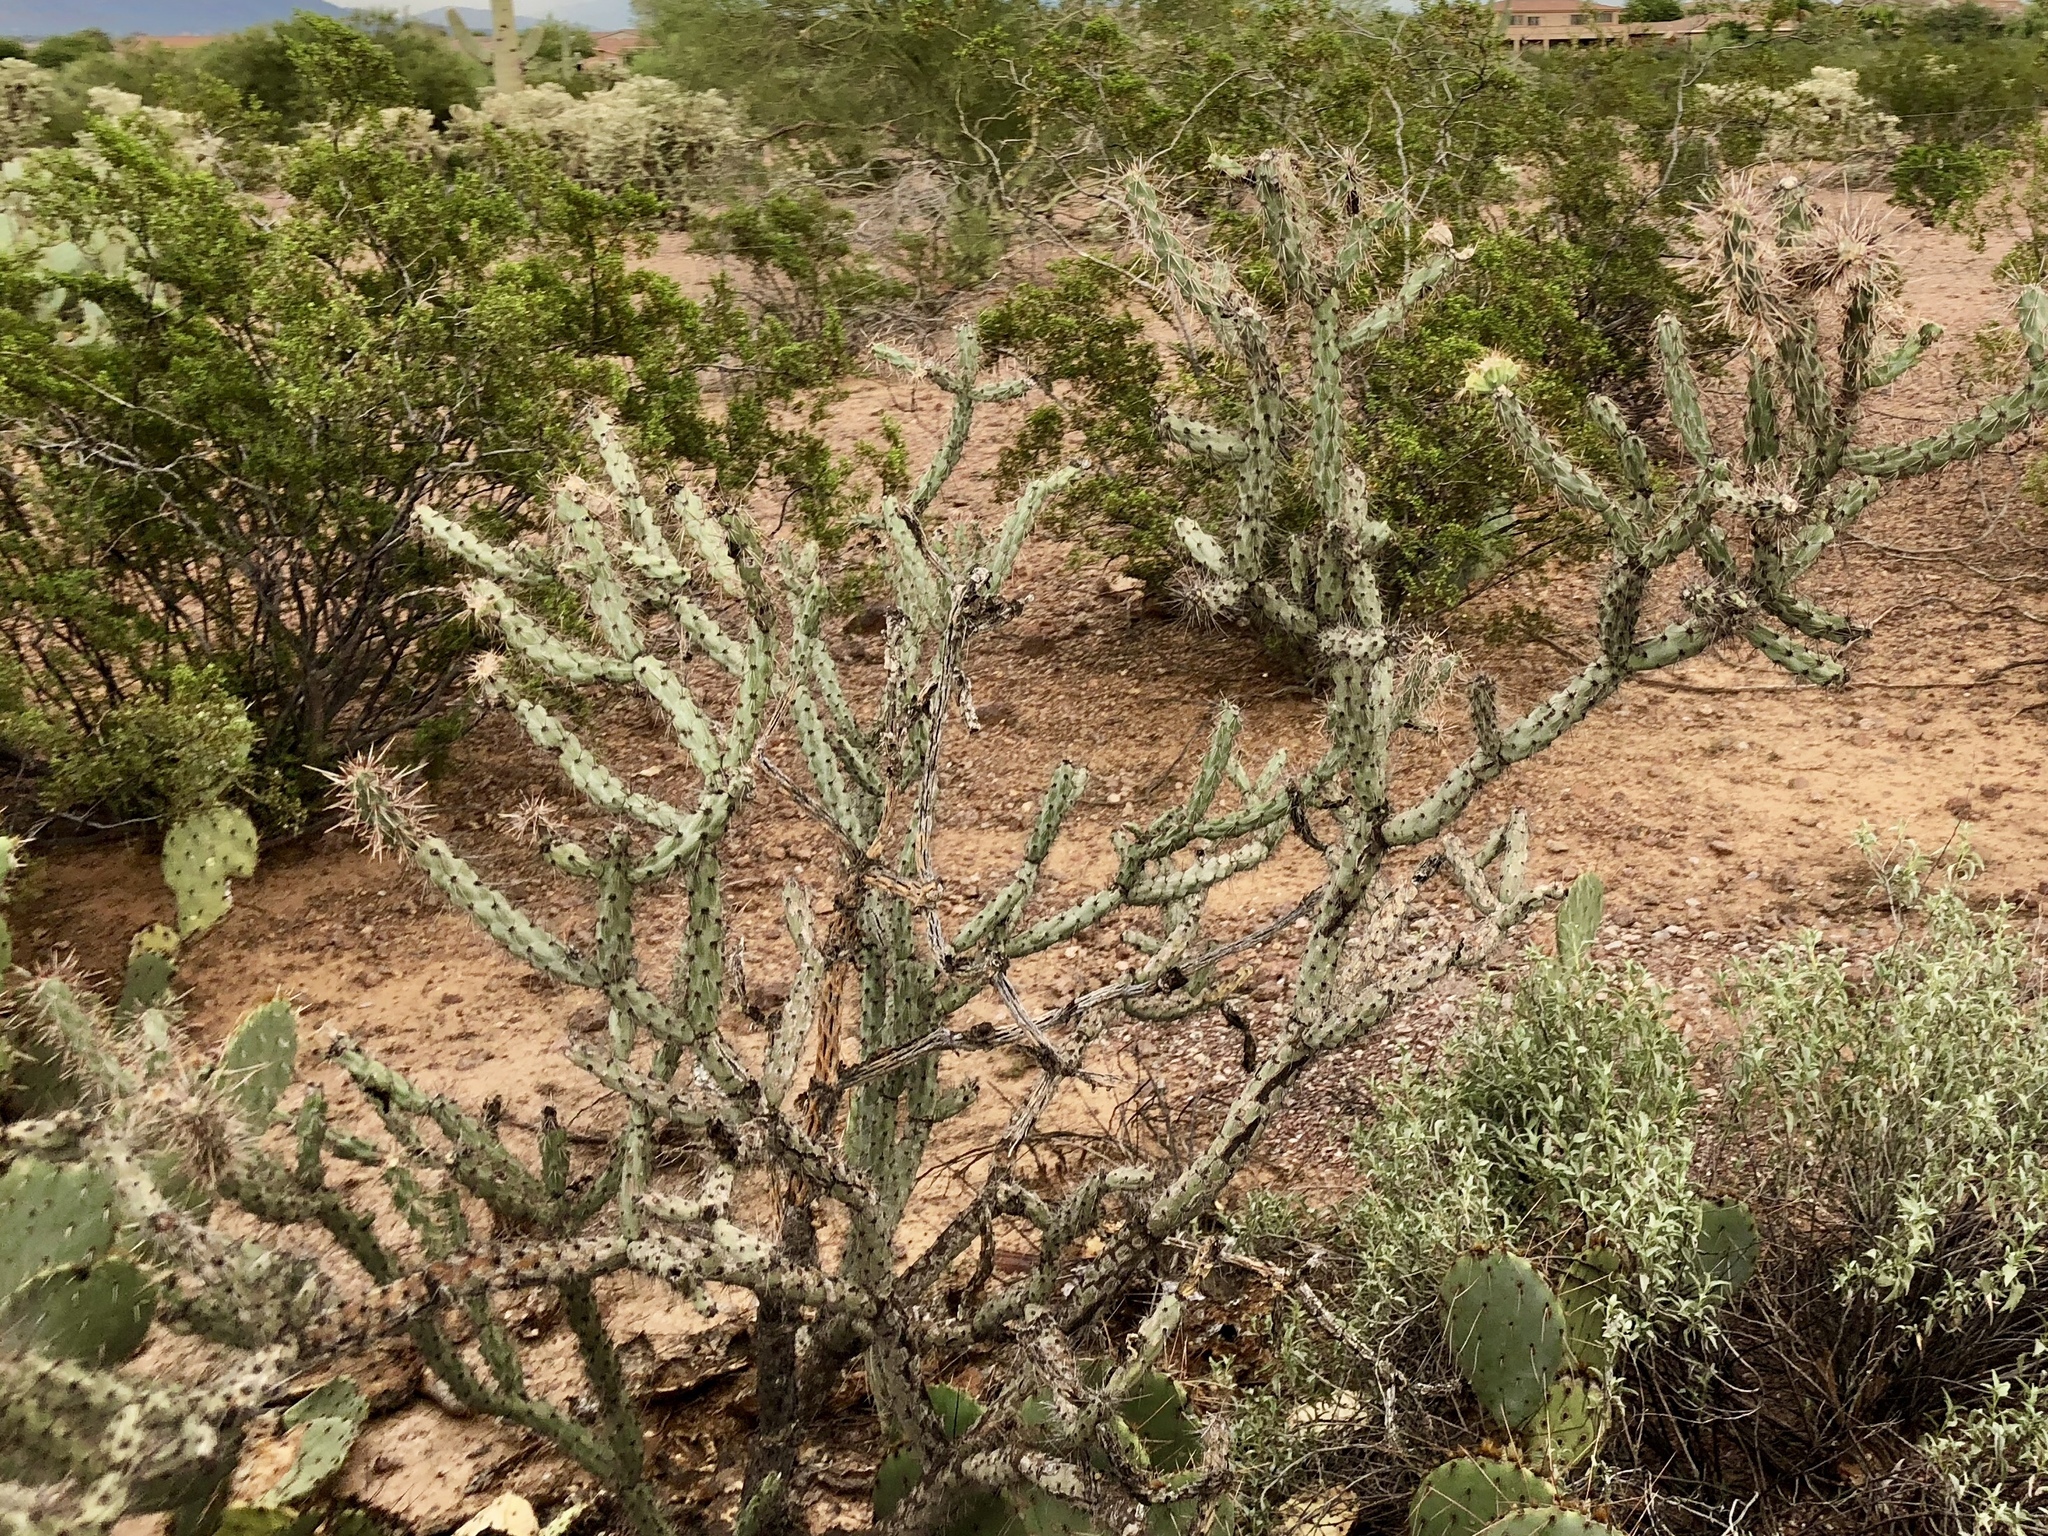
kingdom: Plantae
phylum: Tracheophyta
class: Magnoliopsida
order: Caryophyllales
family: Cactaceae
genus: Cylindropuntia
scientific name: Cylindropuntia thurberi
